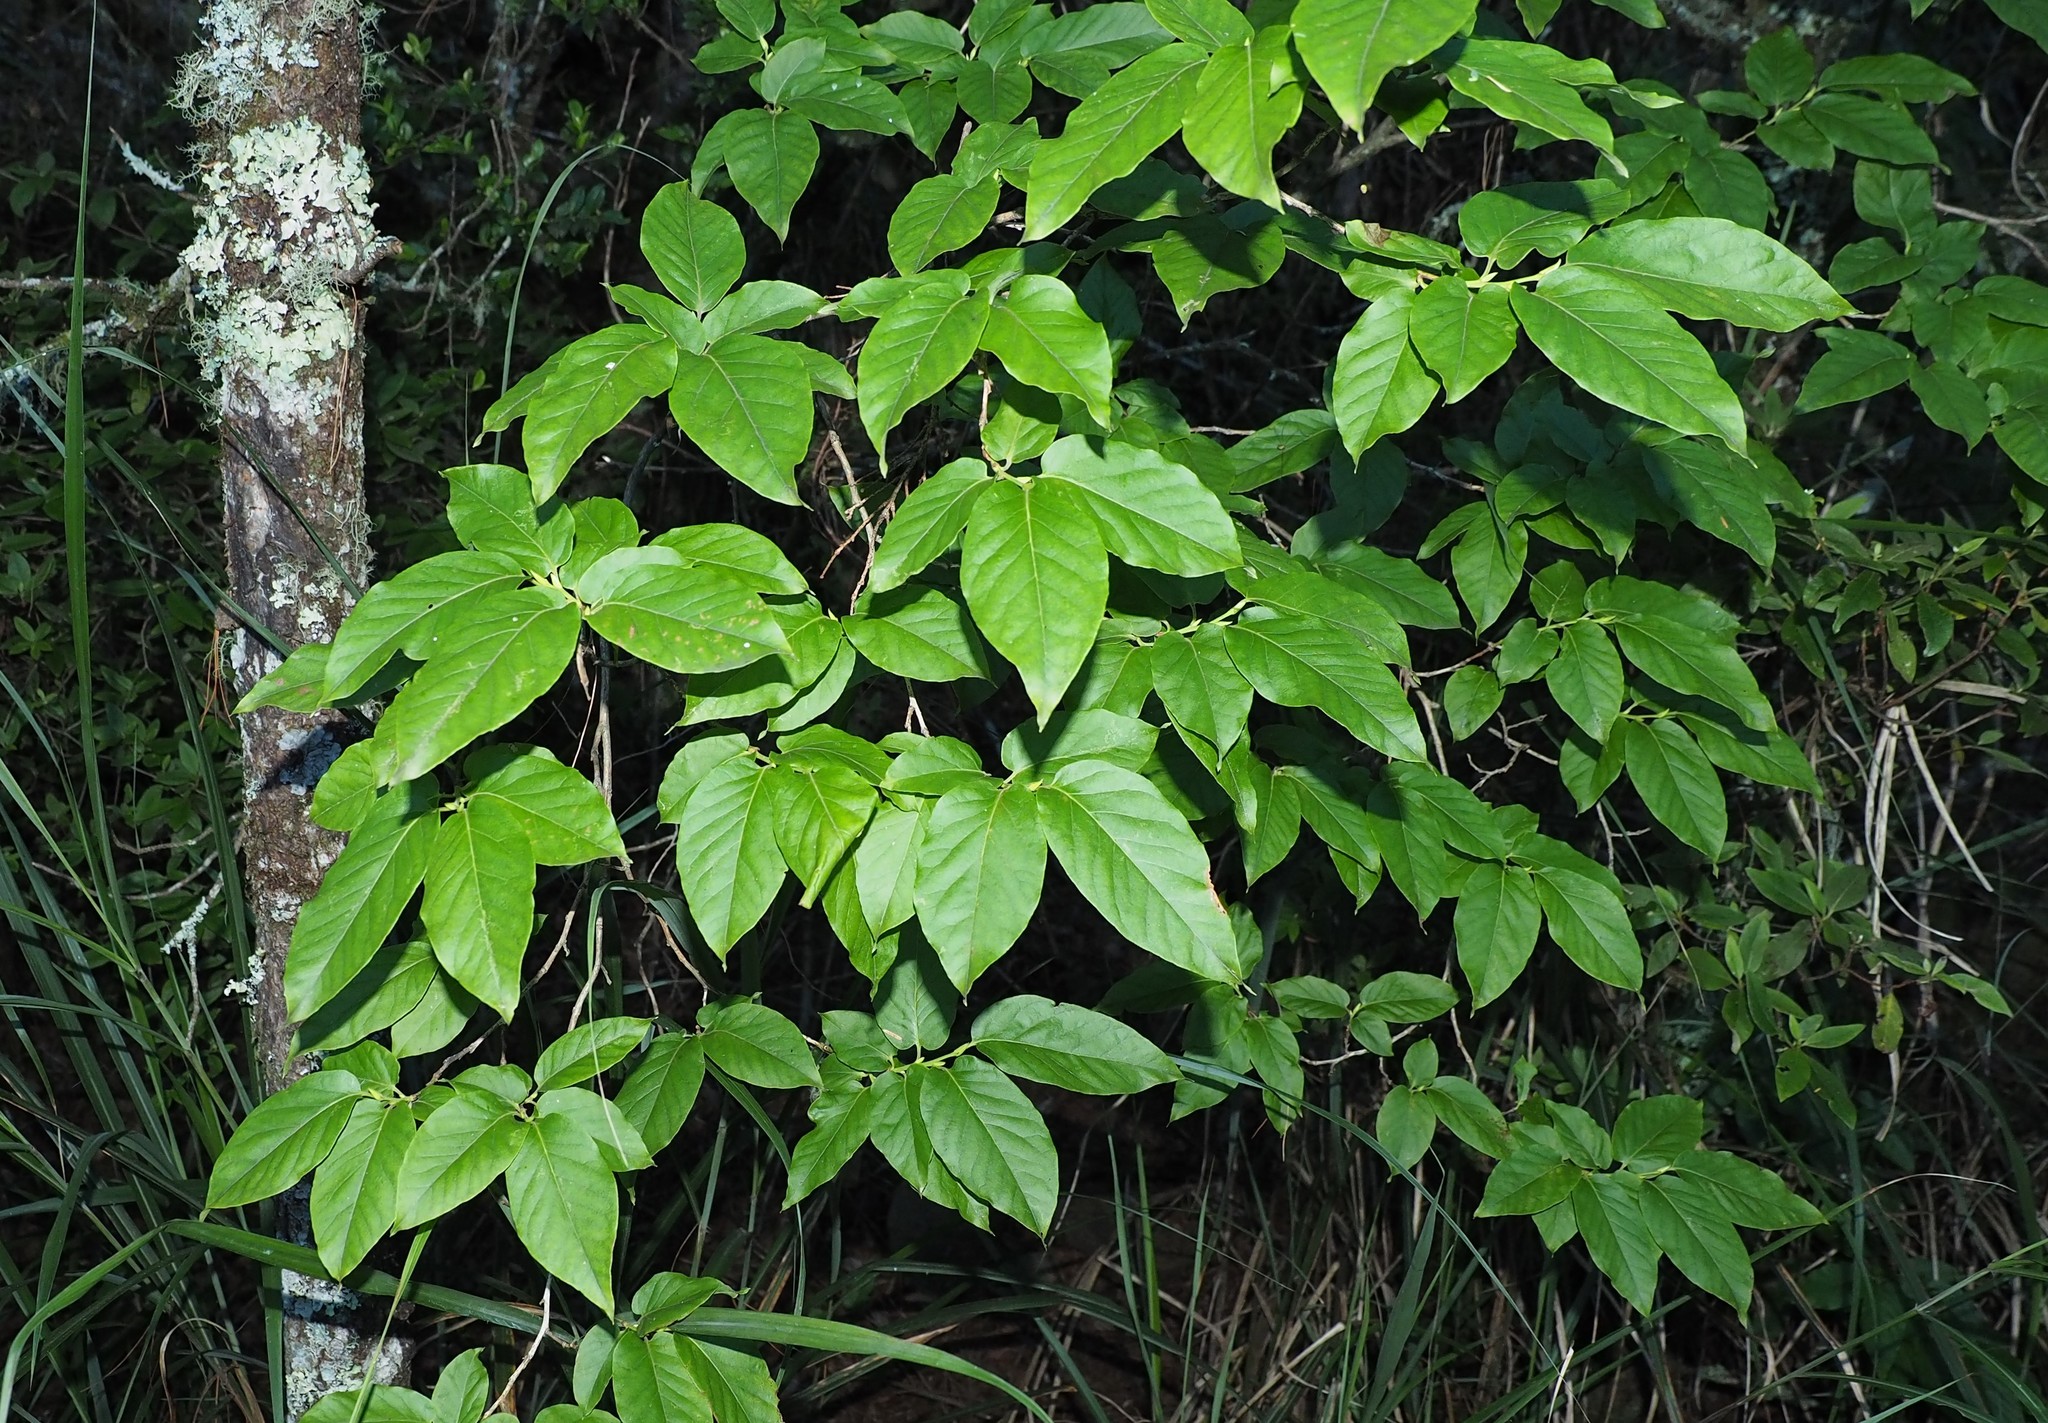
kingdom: Plantae
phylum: Tracheophyta
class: Magnoliopsida
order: Ericales
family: Ericaceae
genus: Lyonia
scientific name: Lyonia ovalifolia
